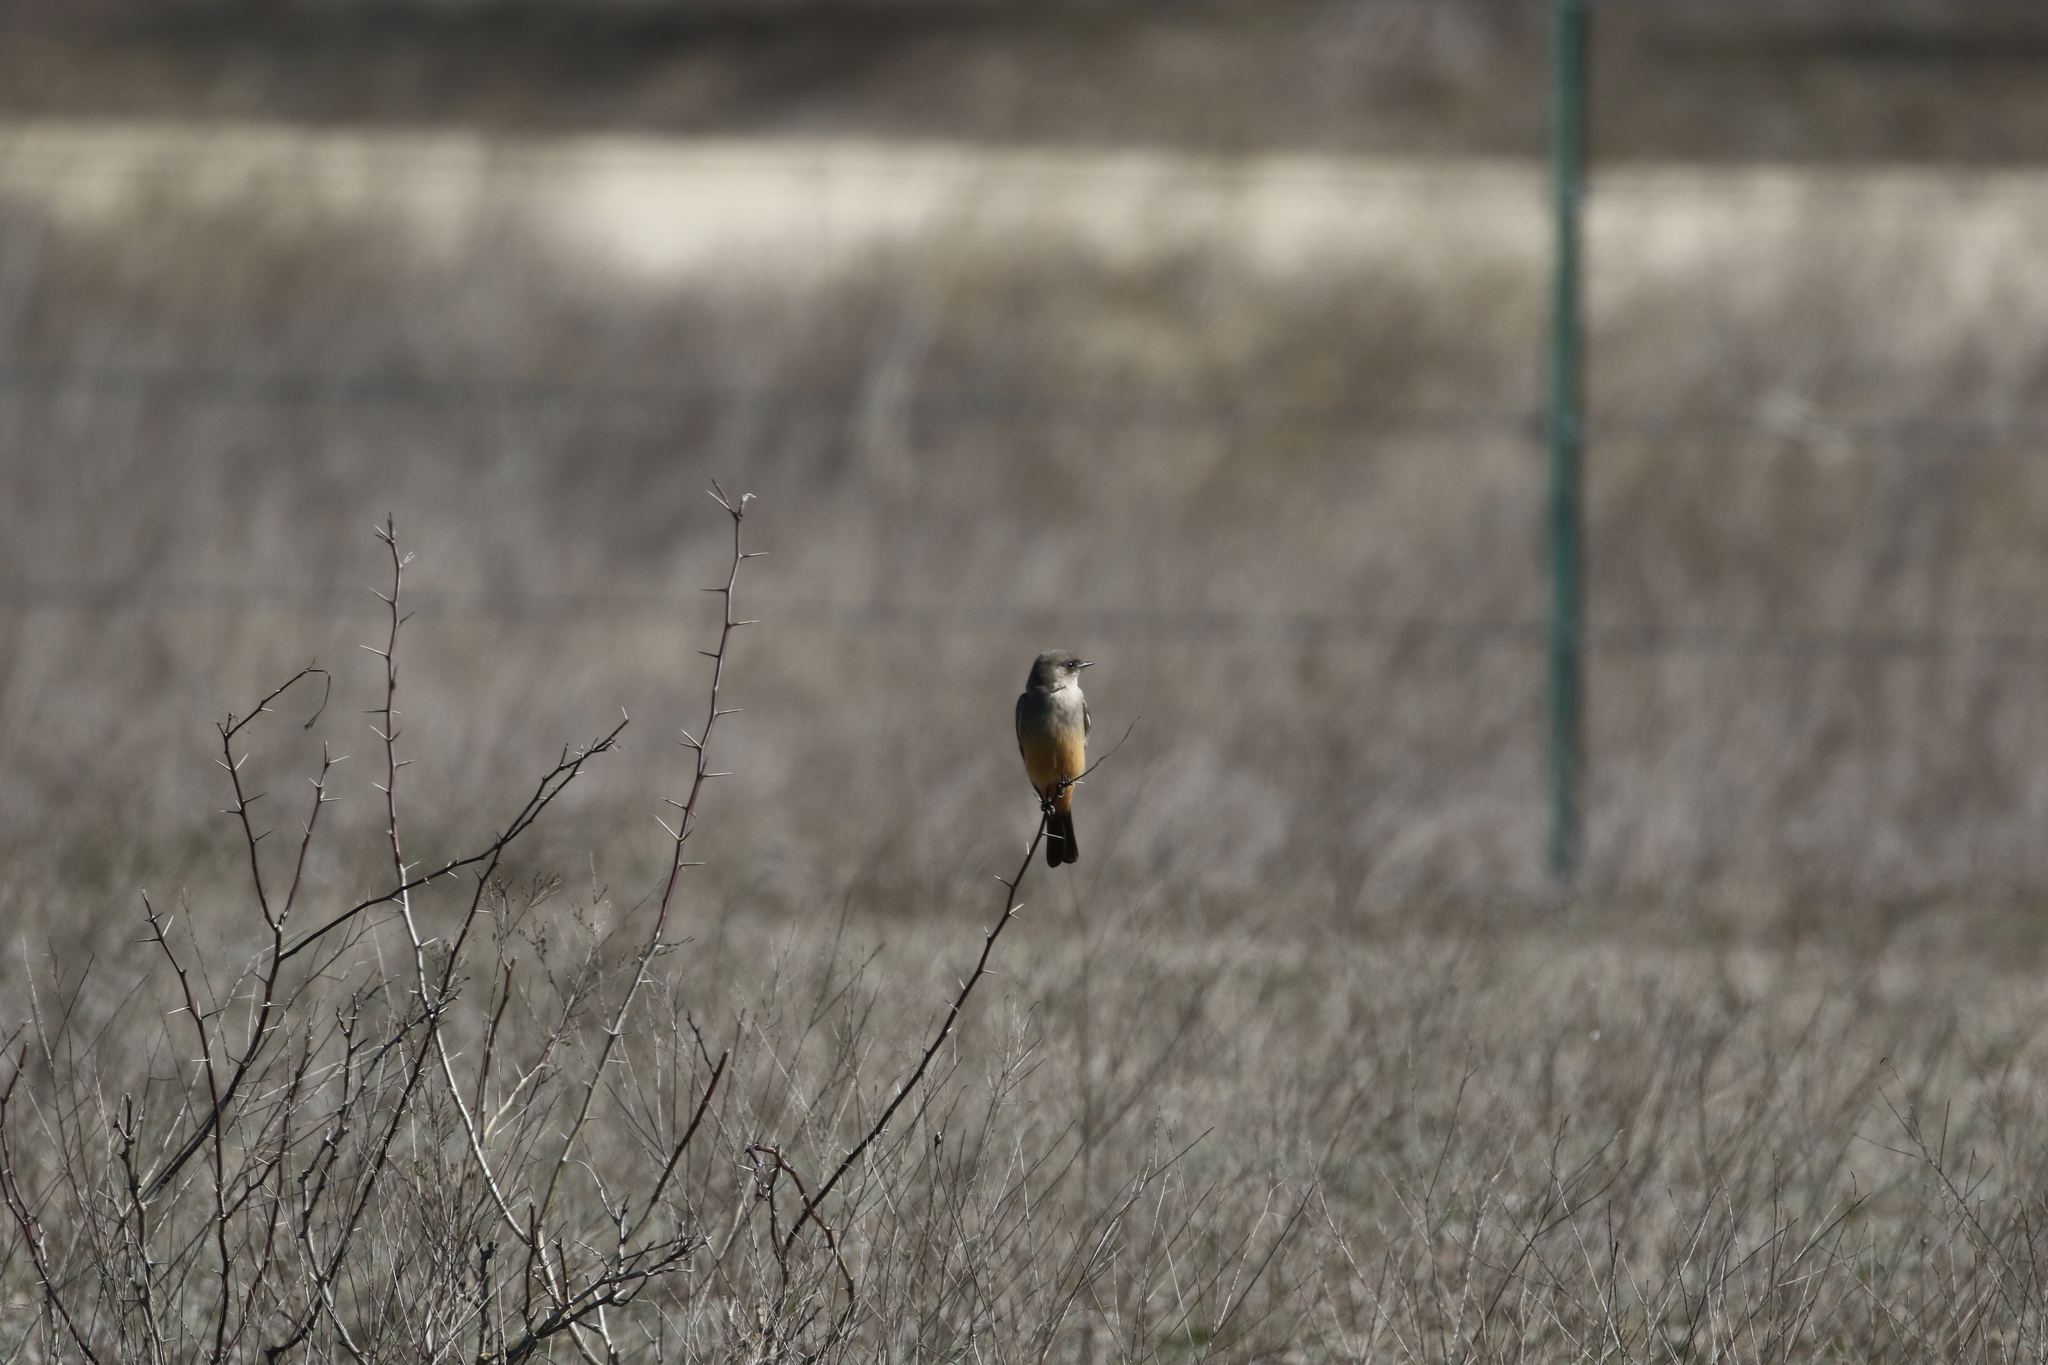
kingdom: Animalia
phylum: Chordata
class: Aves
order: Passeriformes
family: Tyrannidae
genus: Sayornis
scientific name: Sayornis saya
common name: Say's phoebe
